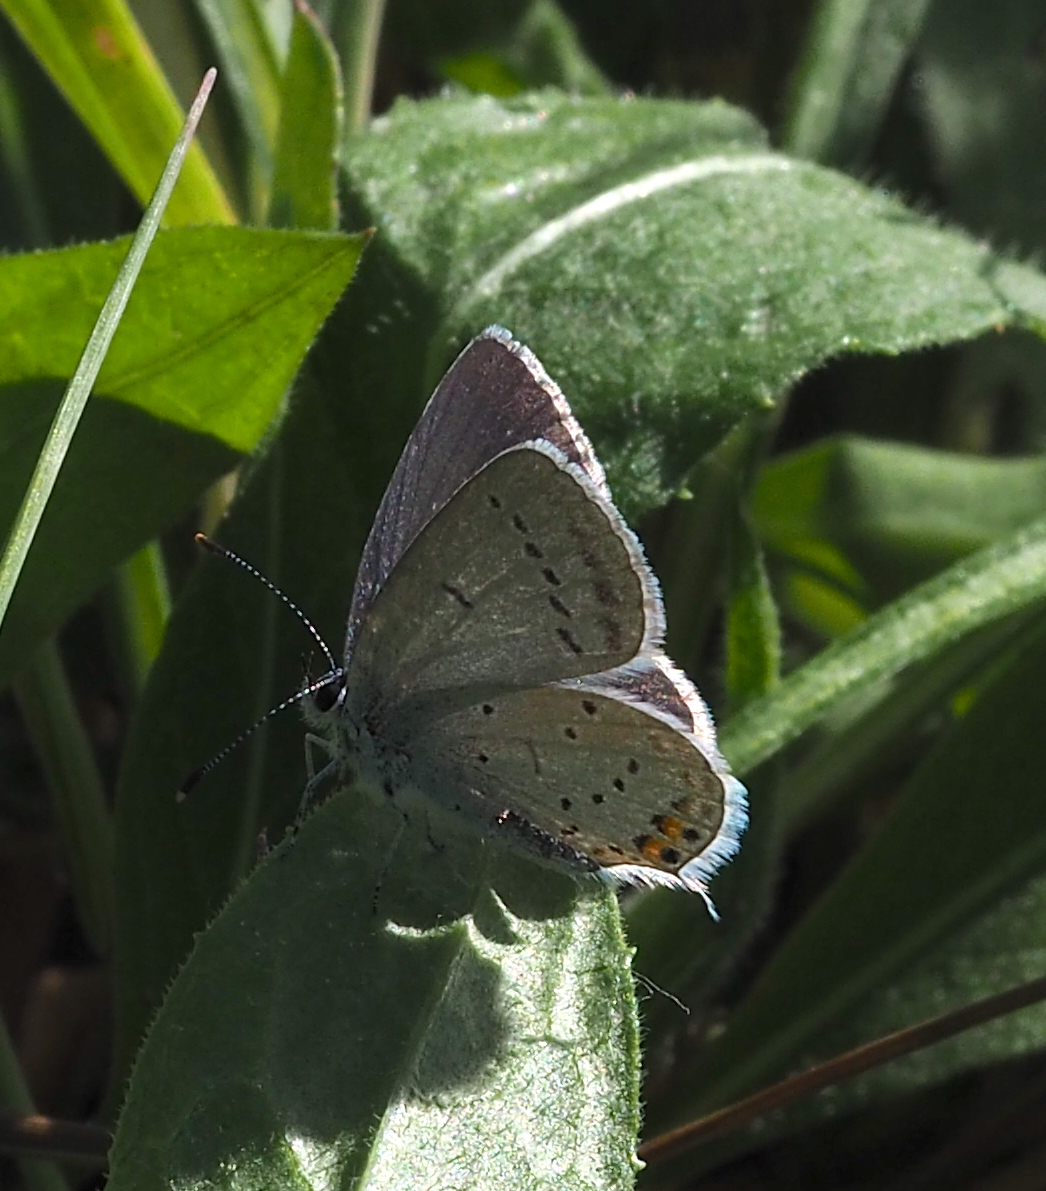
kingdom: Animalia
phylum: Arthropoda
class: Insecta
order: Lepidoptera
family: Lycaenidae
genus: Elkalyce
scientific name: Elkalyce argiades
